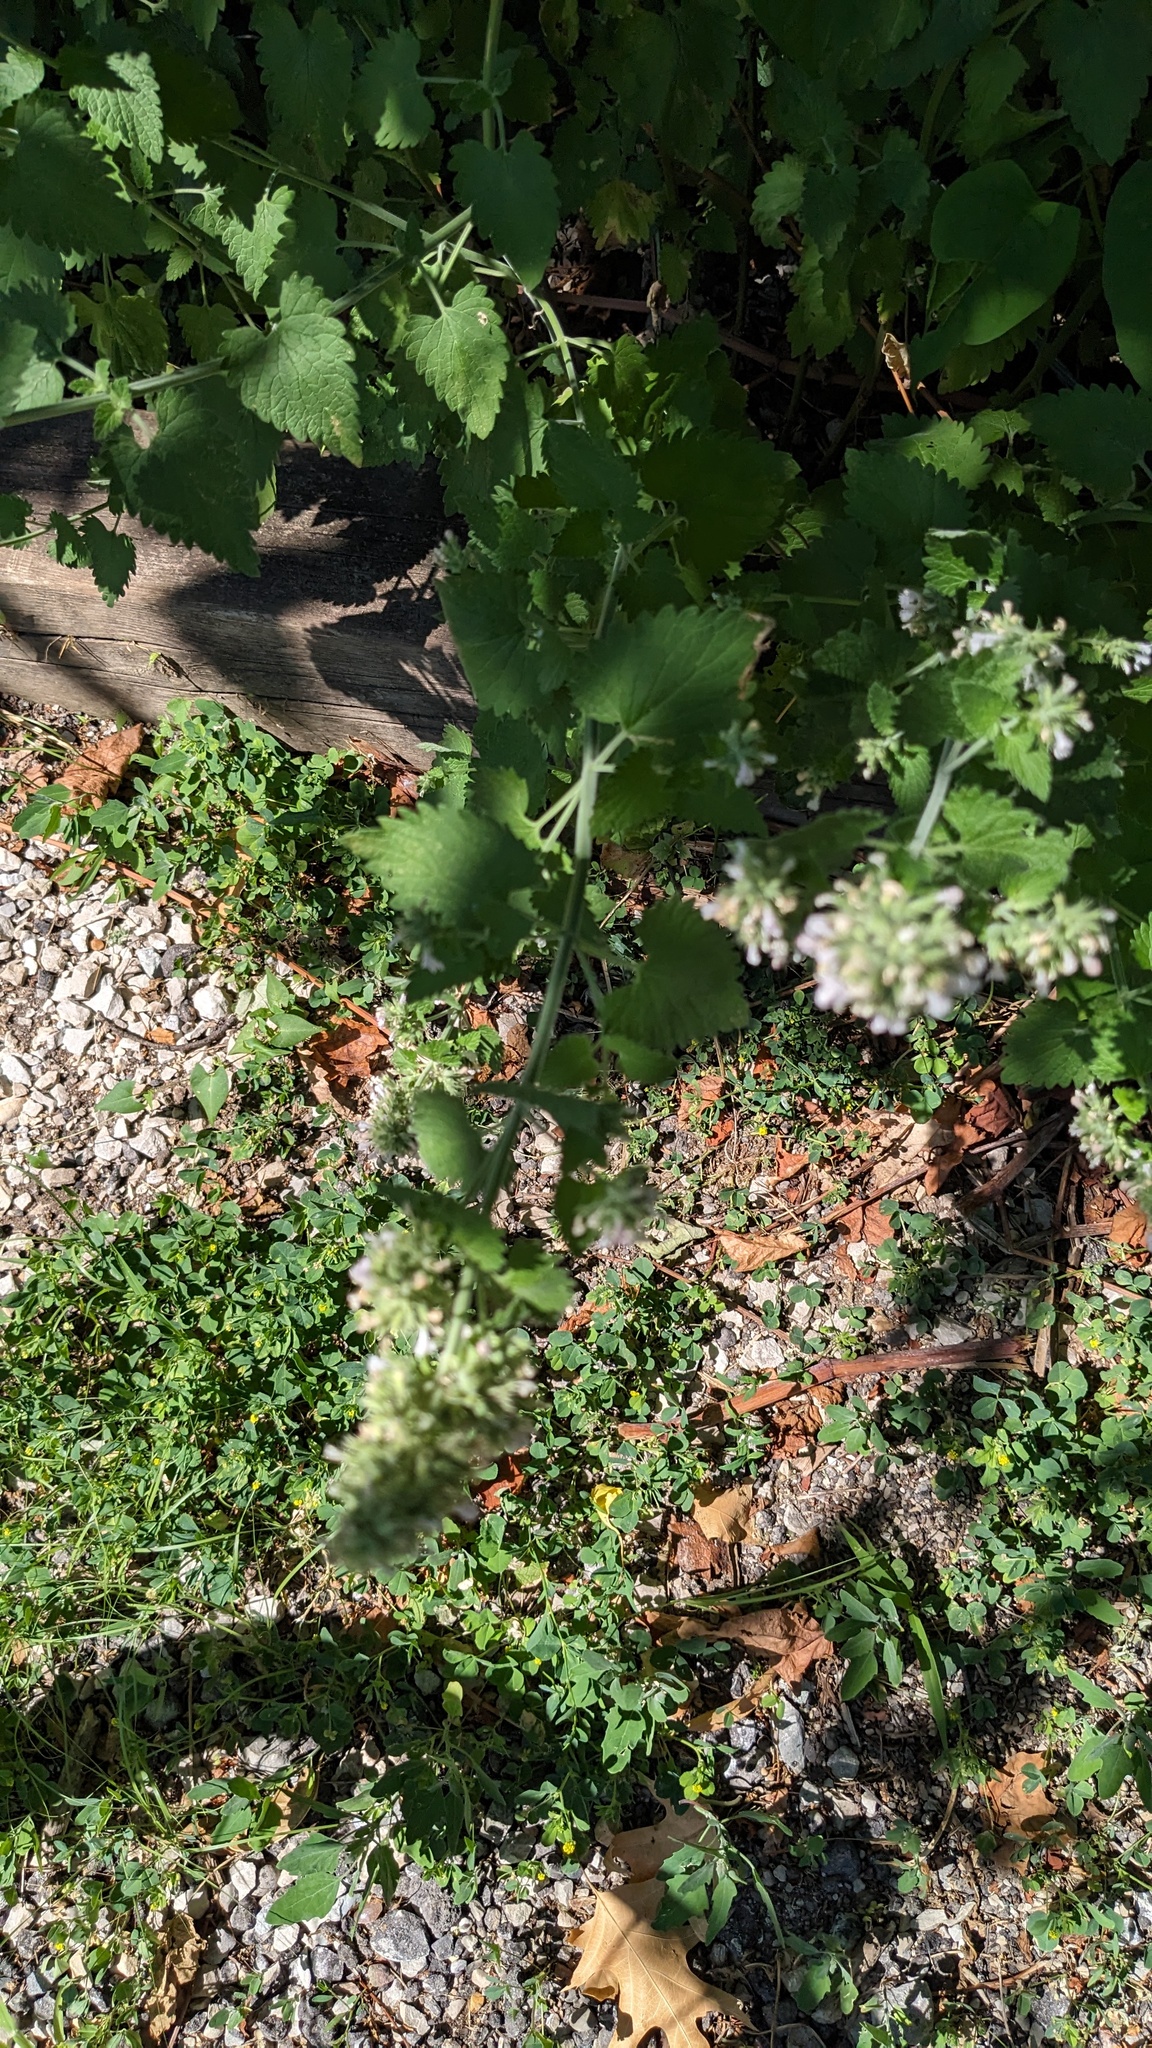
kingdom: Plantae
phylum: Tracheophyta
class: Magnoliopsida
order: Lamiales
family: Lamiaceae
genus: Nepeta
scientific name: Nepeta cataria
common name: Catnip
